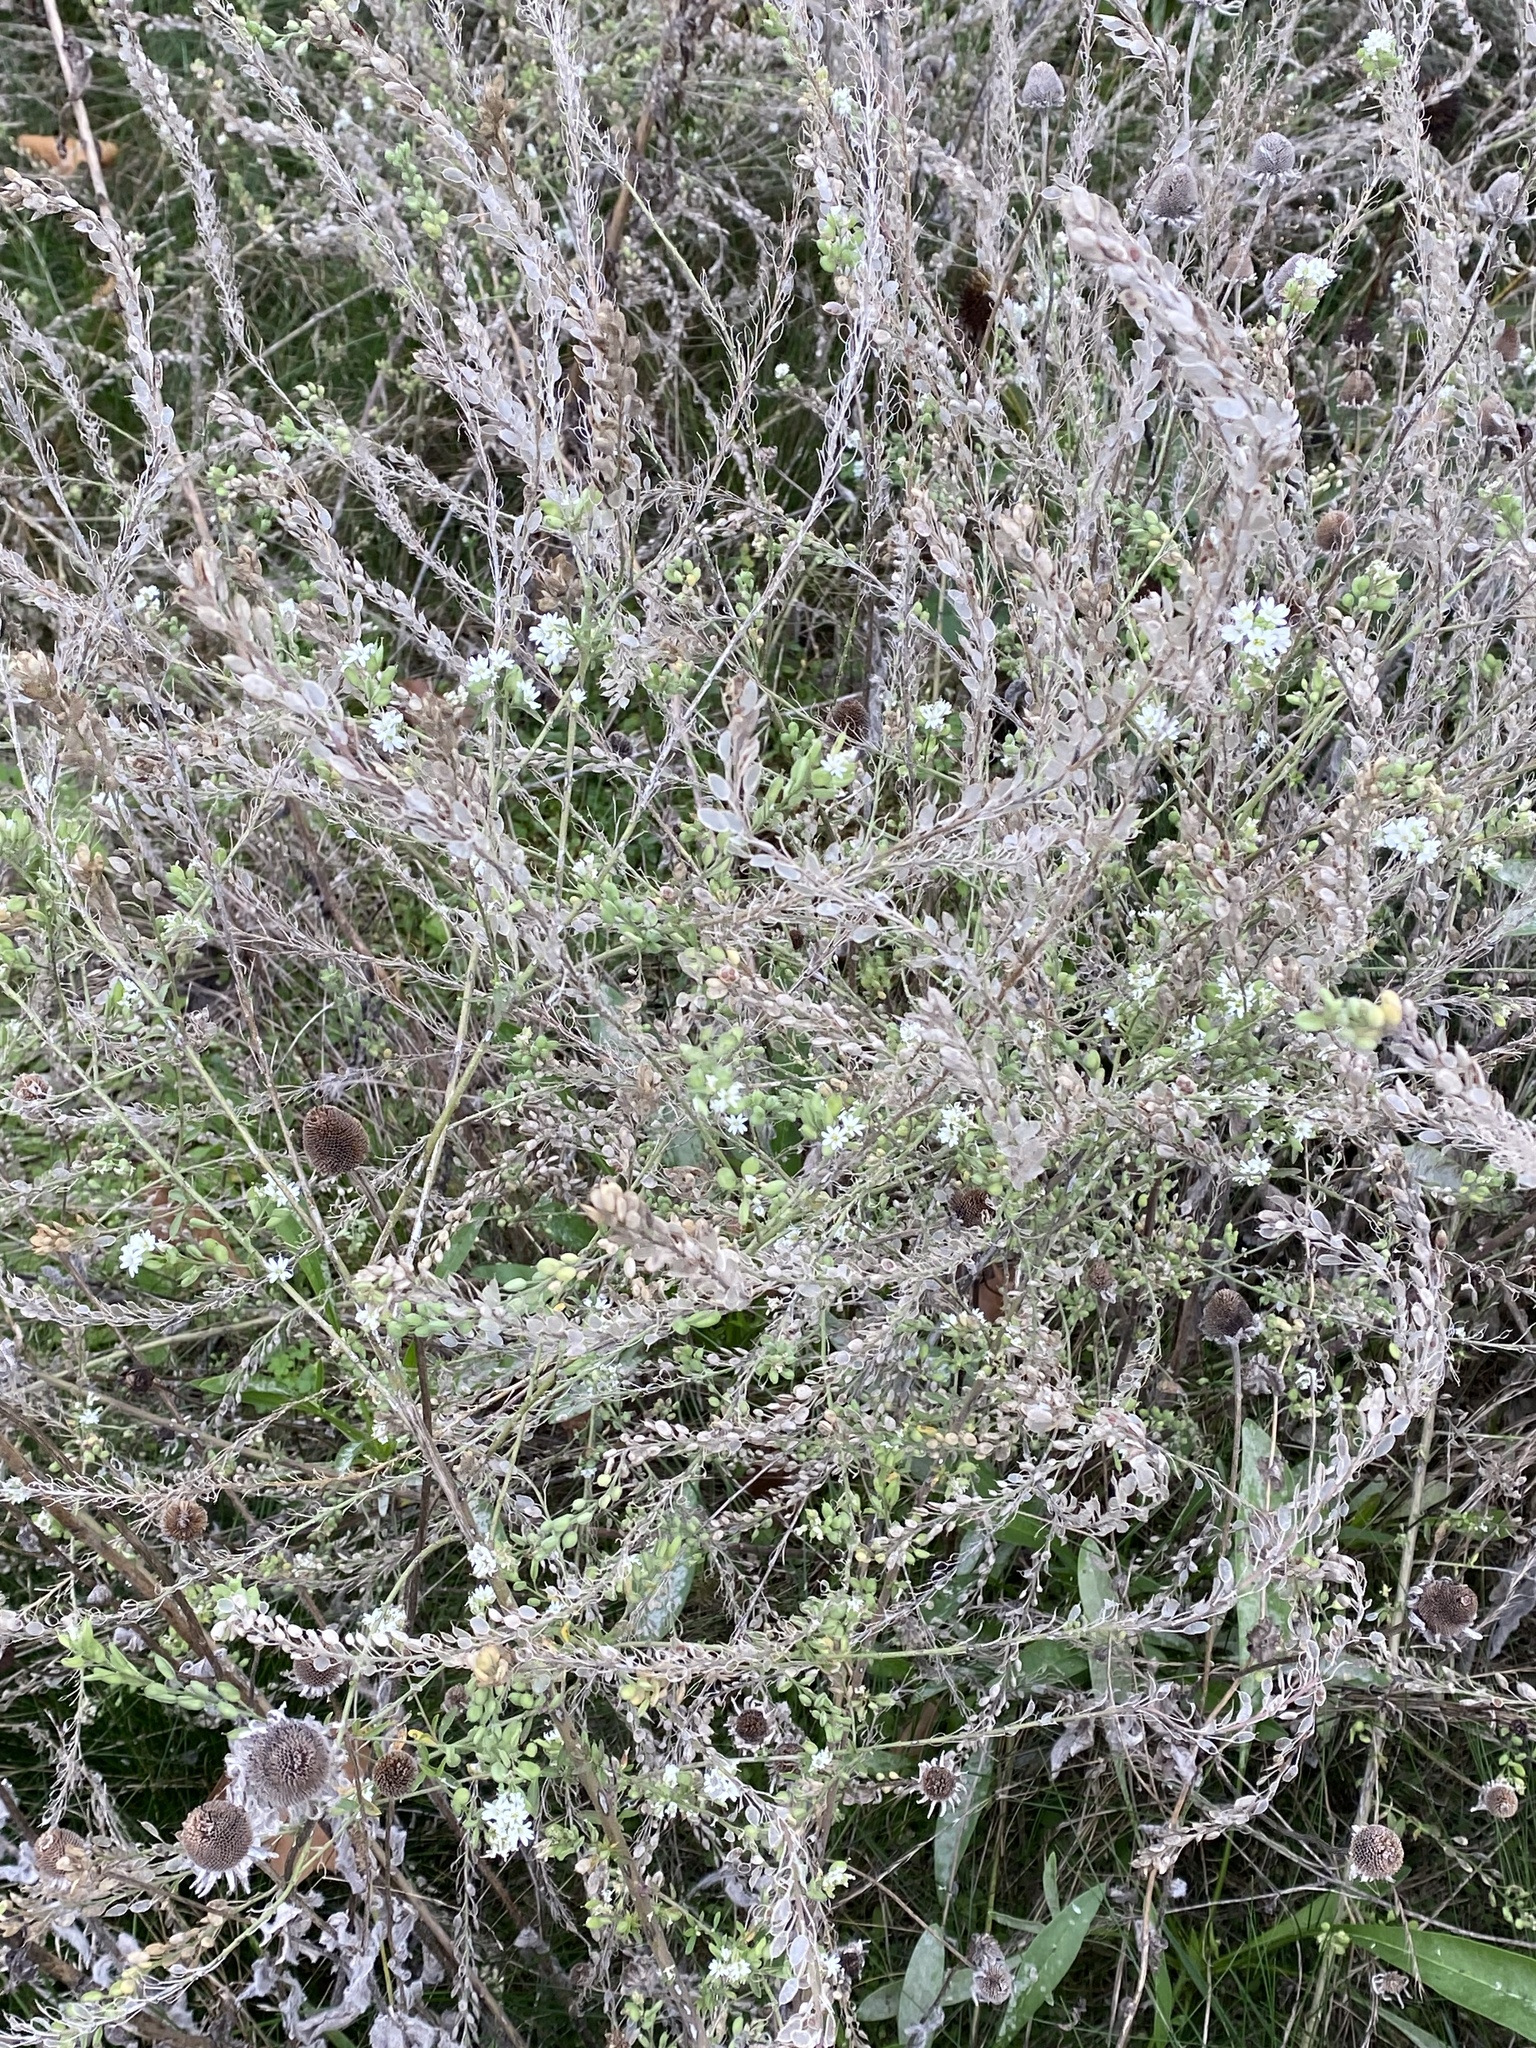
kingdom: Plantae
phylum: Tracheophyta
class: Magnoliopsida
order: Brassicales
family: Brassicaceae
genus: Berteroa
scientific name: Berteroa incana
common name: Hoary alison
